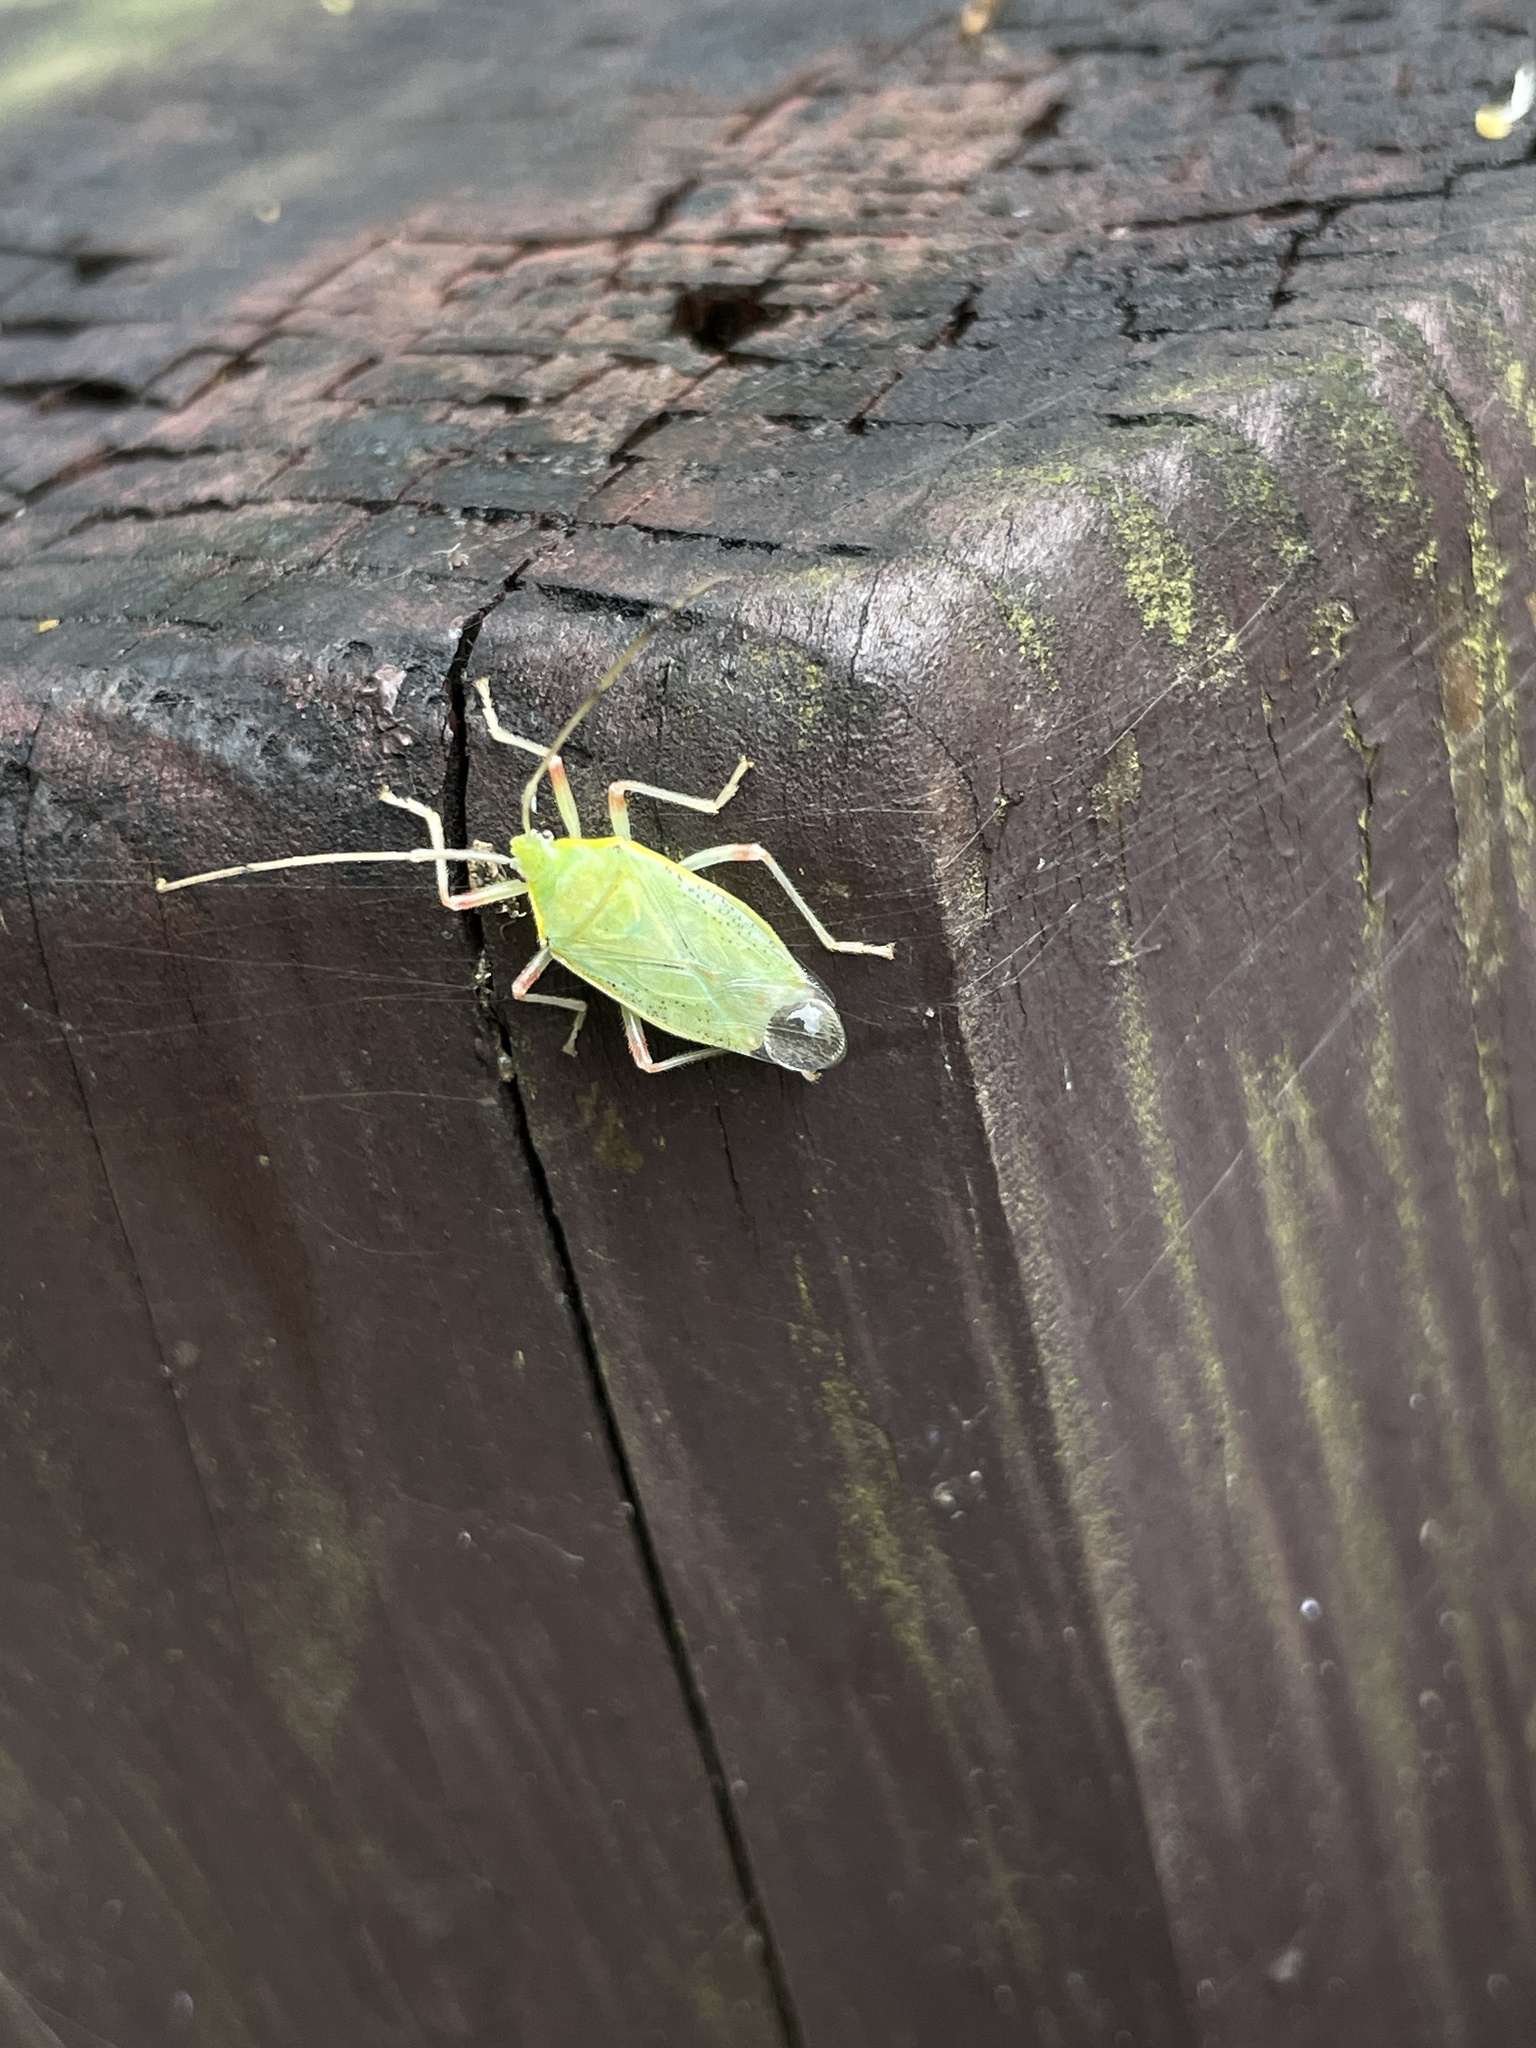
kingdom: Animalia
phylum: Arthropoda
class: Insecta
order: Hemiptera
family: Urostylididae
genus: Urostylis
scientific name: Urostylis lateralis
